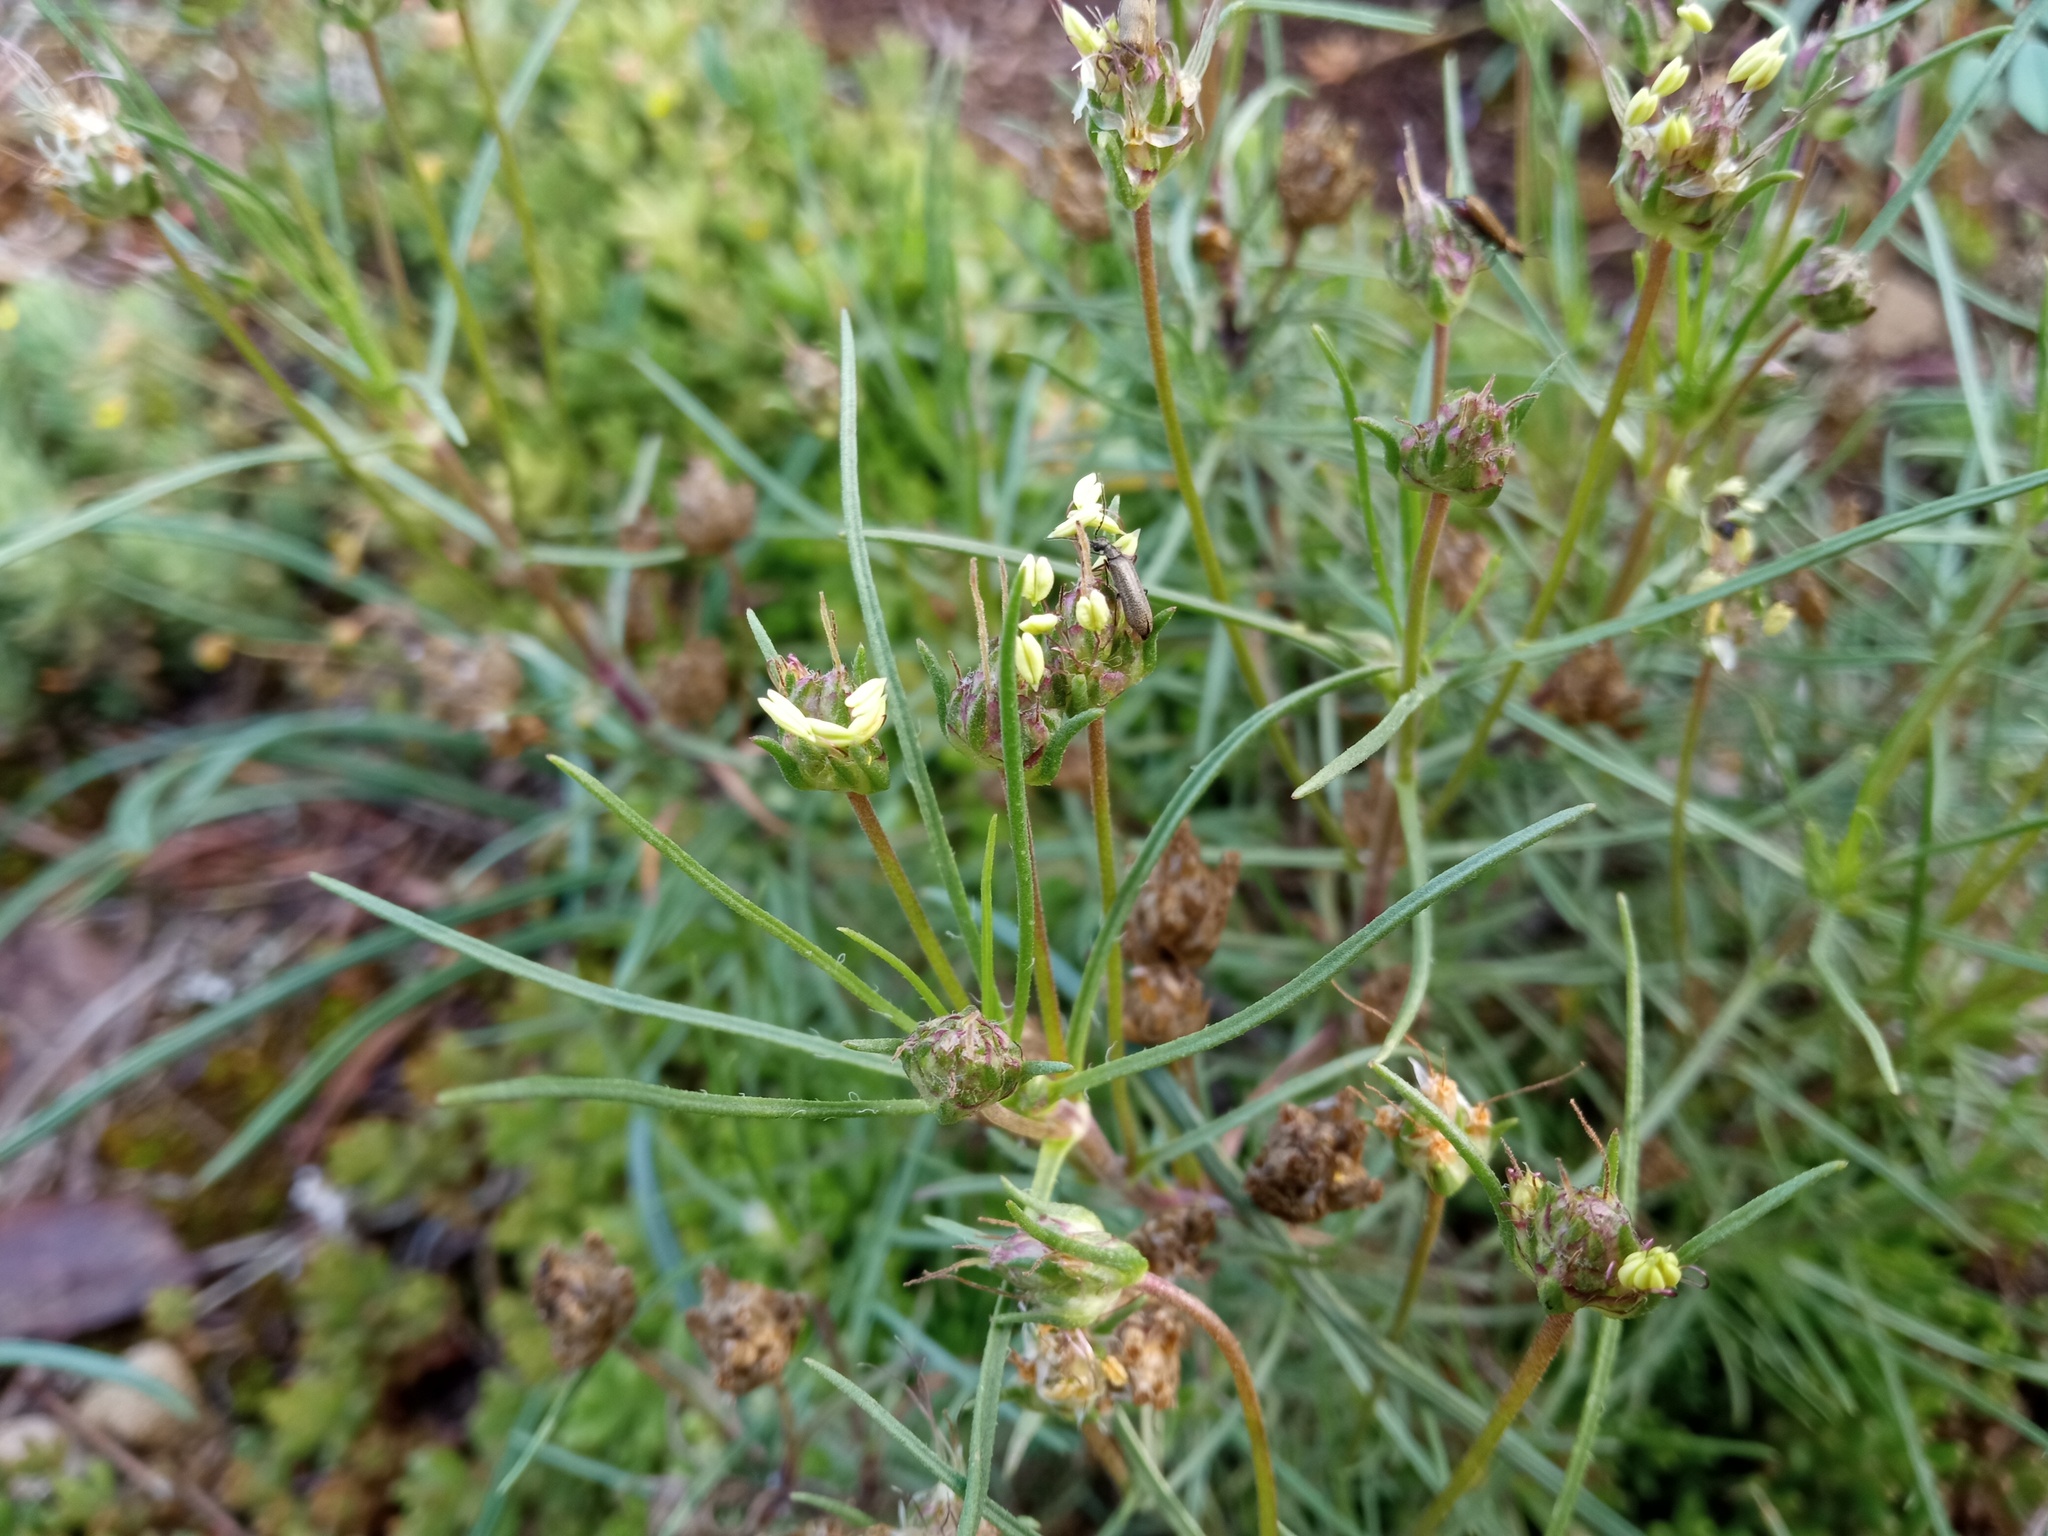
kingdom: Plantae
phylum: Tracheophyta
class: Magnoliopsida
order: Lamiales
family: Plantaginaceae
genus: Plantago
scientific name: Plantago sempervirens
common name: Shrubby plantain
